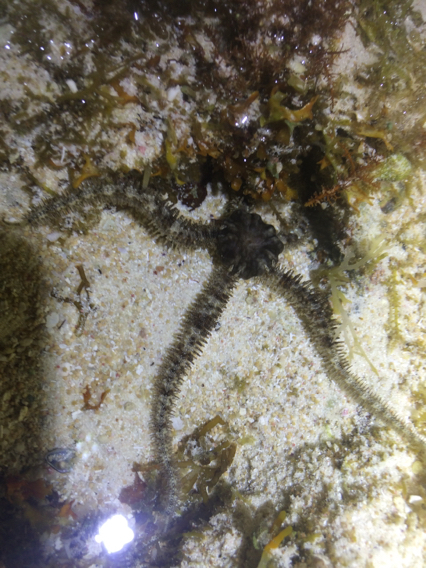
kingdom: Animalia
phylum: Echinodermata
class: Ophiuroidea
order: Ophiacanthida
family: Ophiocomidae
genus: Ophiocoma
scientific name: Ophiocoma scolopendrina
